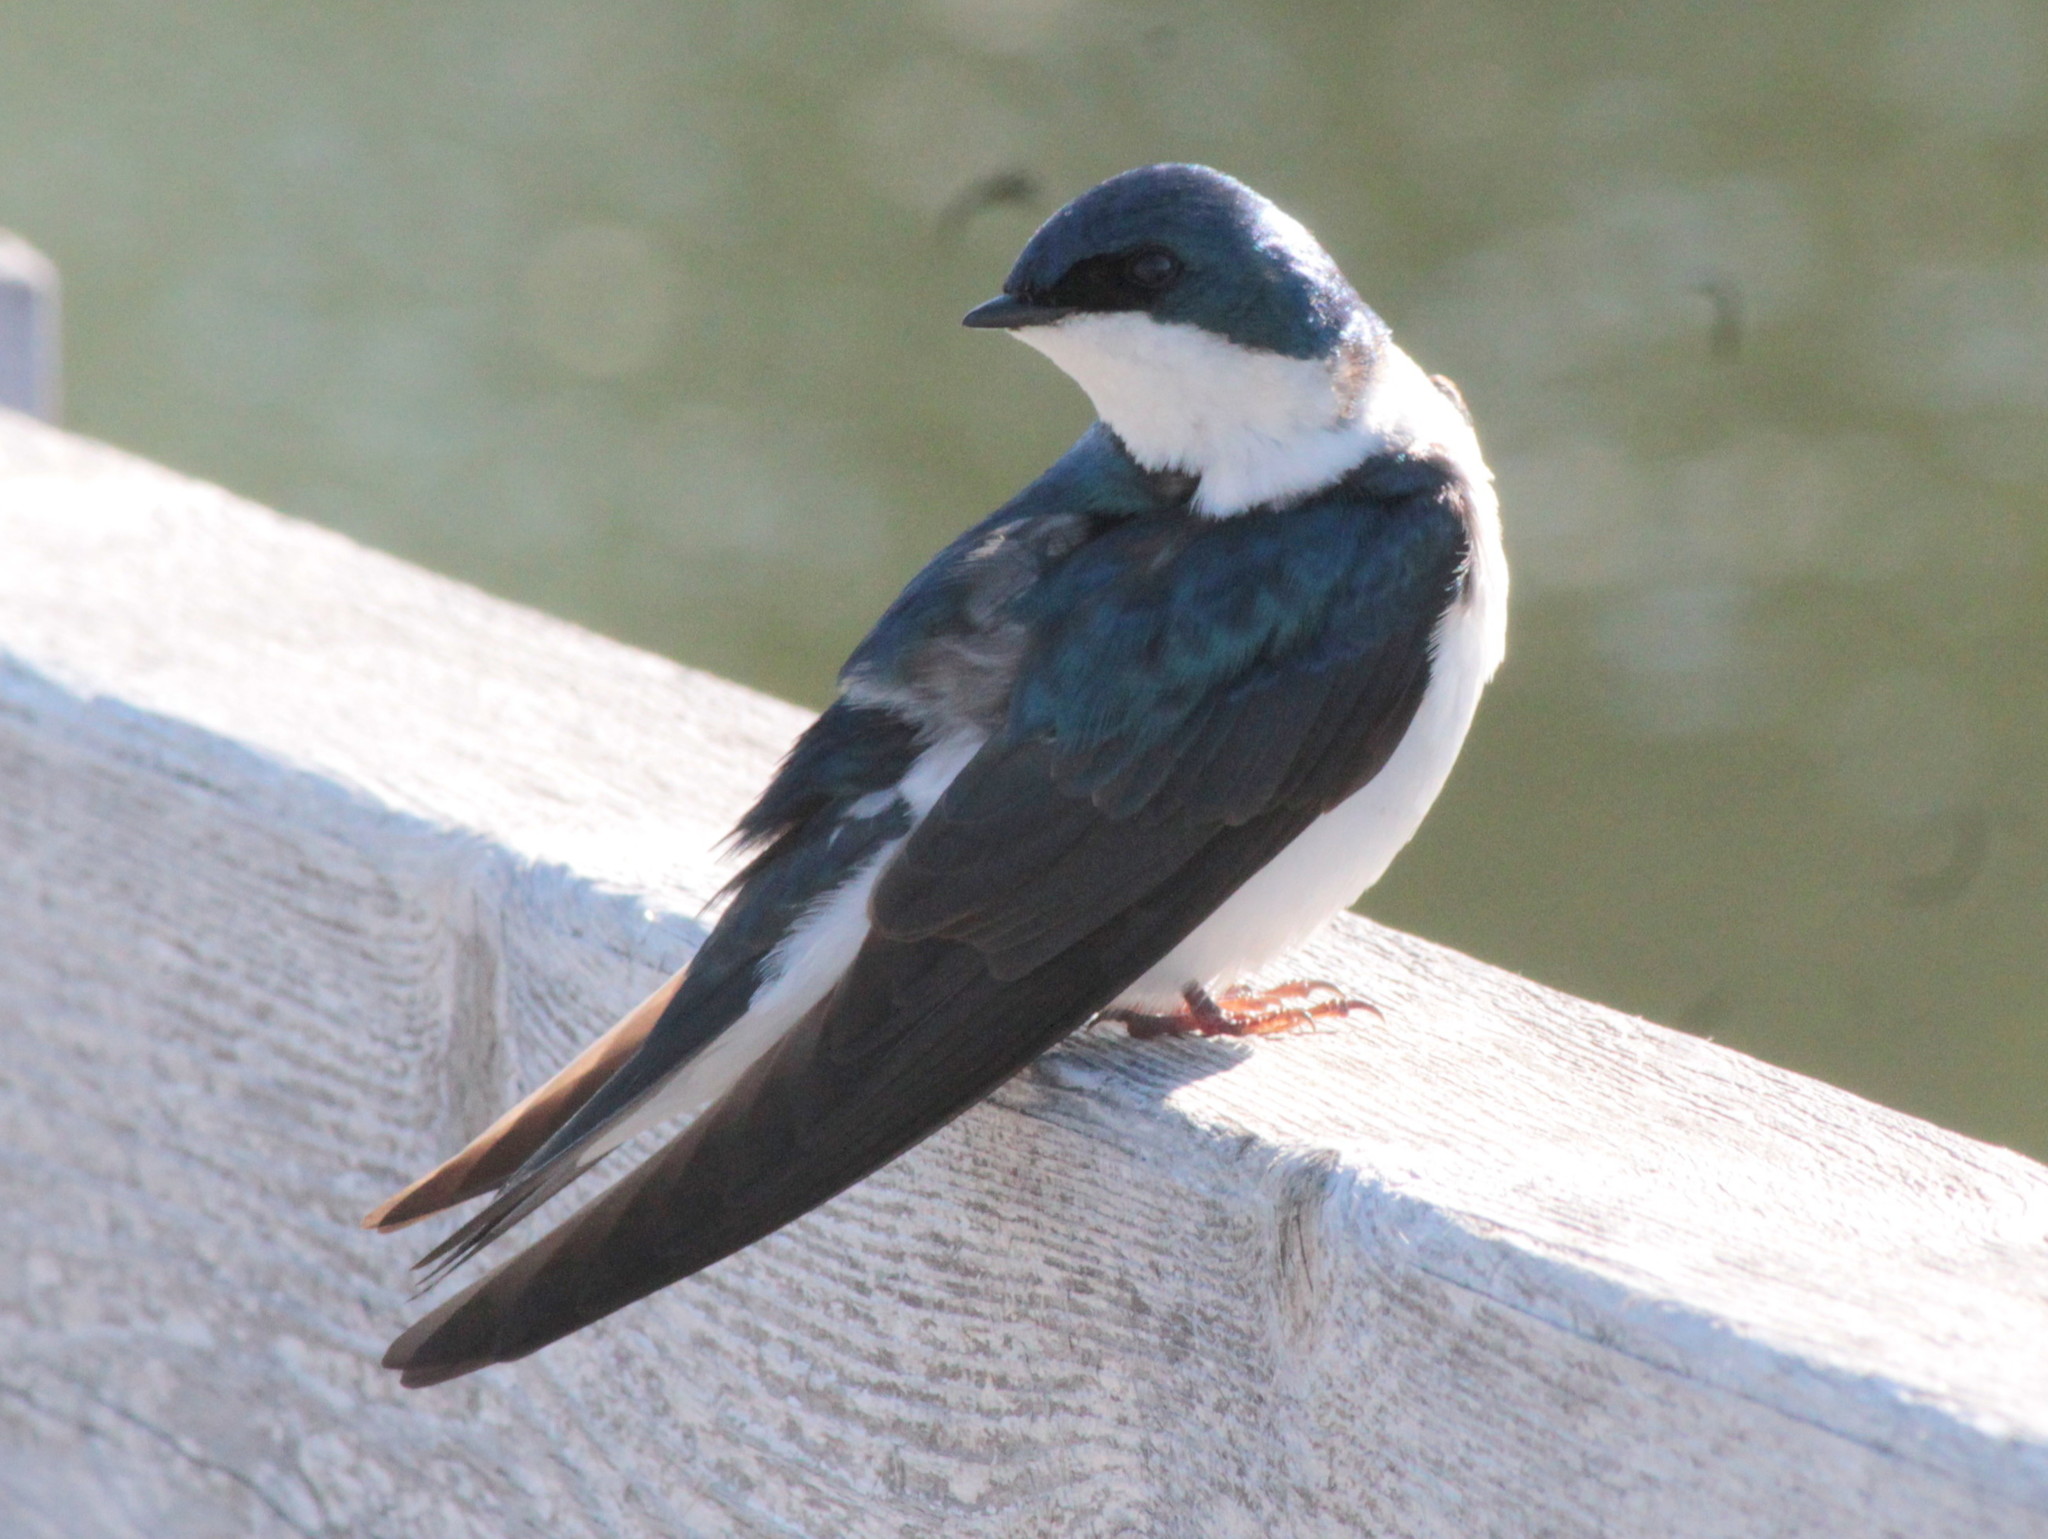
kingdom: Animalia
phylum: Chordata
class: Aves
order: Passeriformes
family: Hirundinidae
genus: Tachycineta
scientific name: Tachycineta bicolor
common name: Tree swallow
